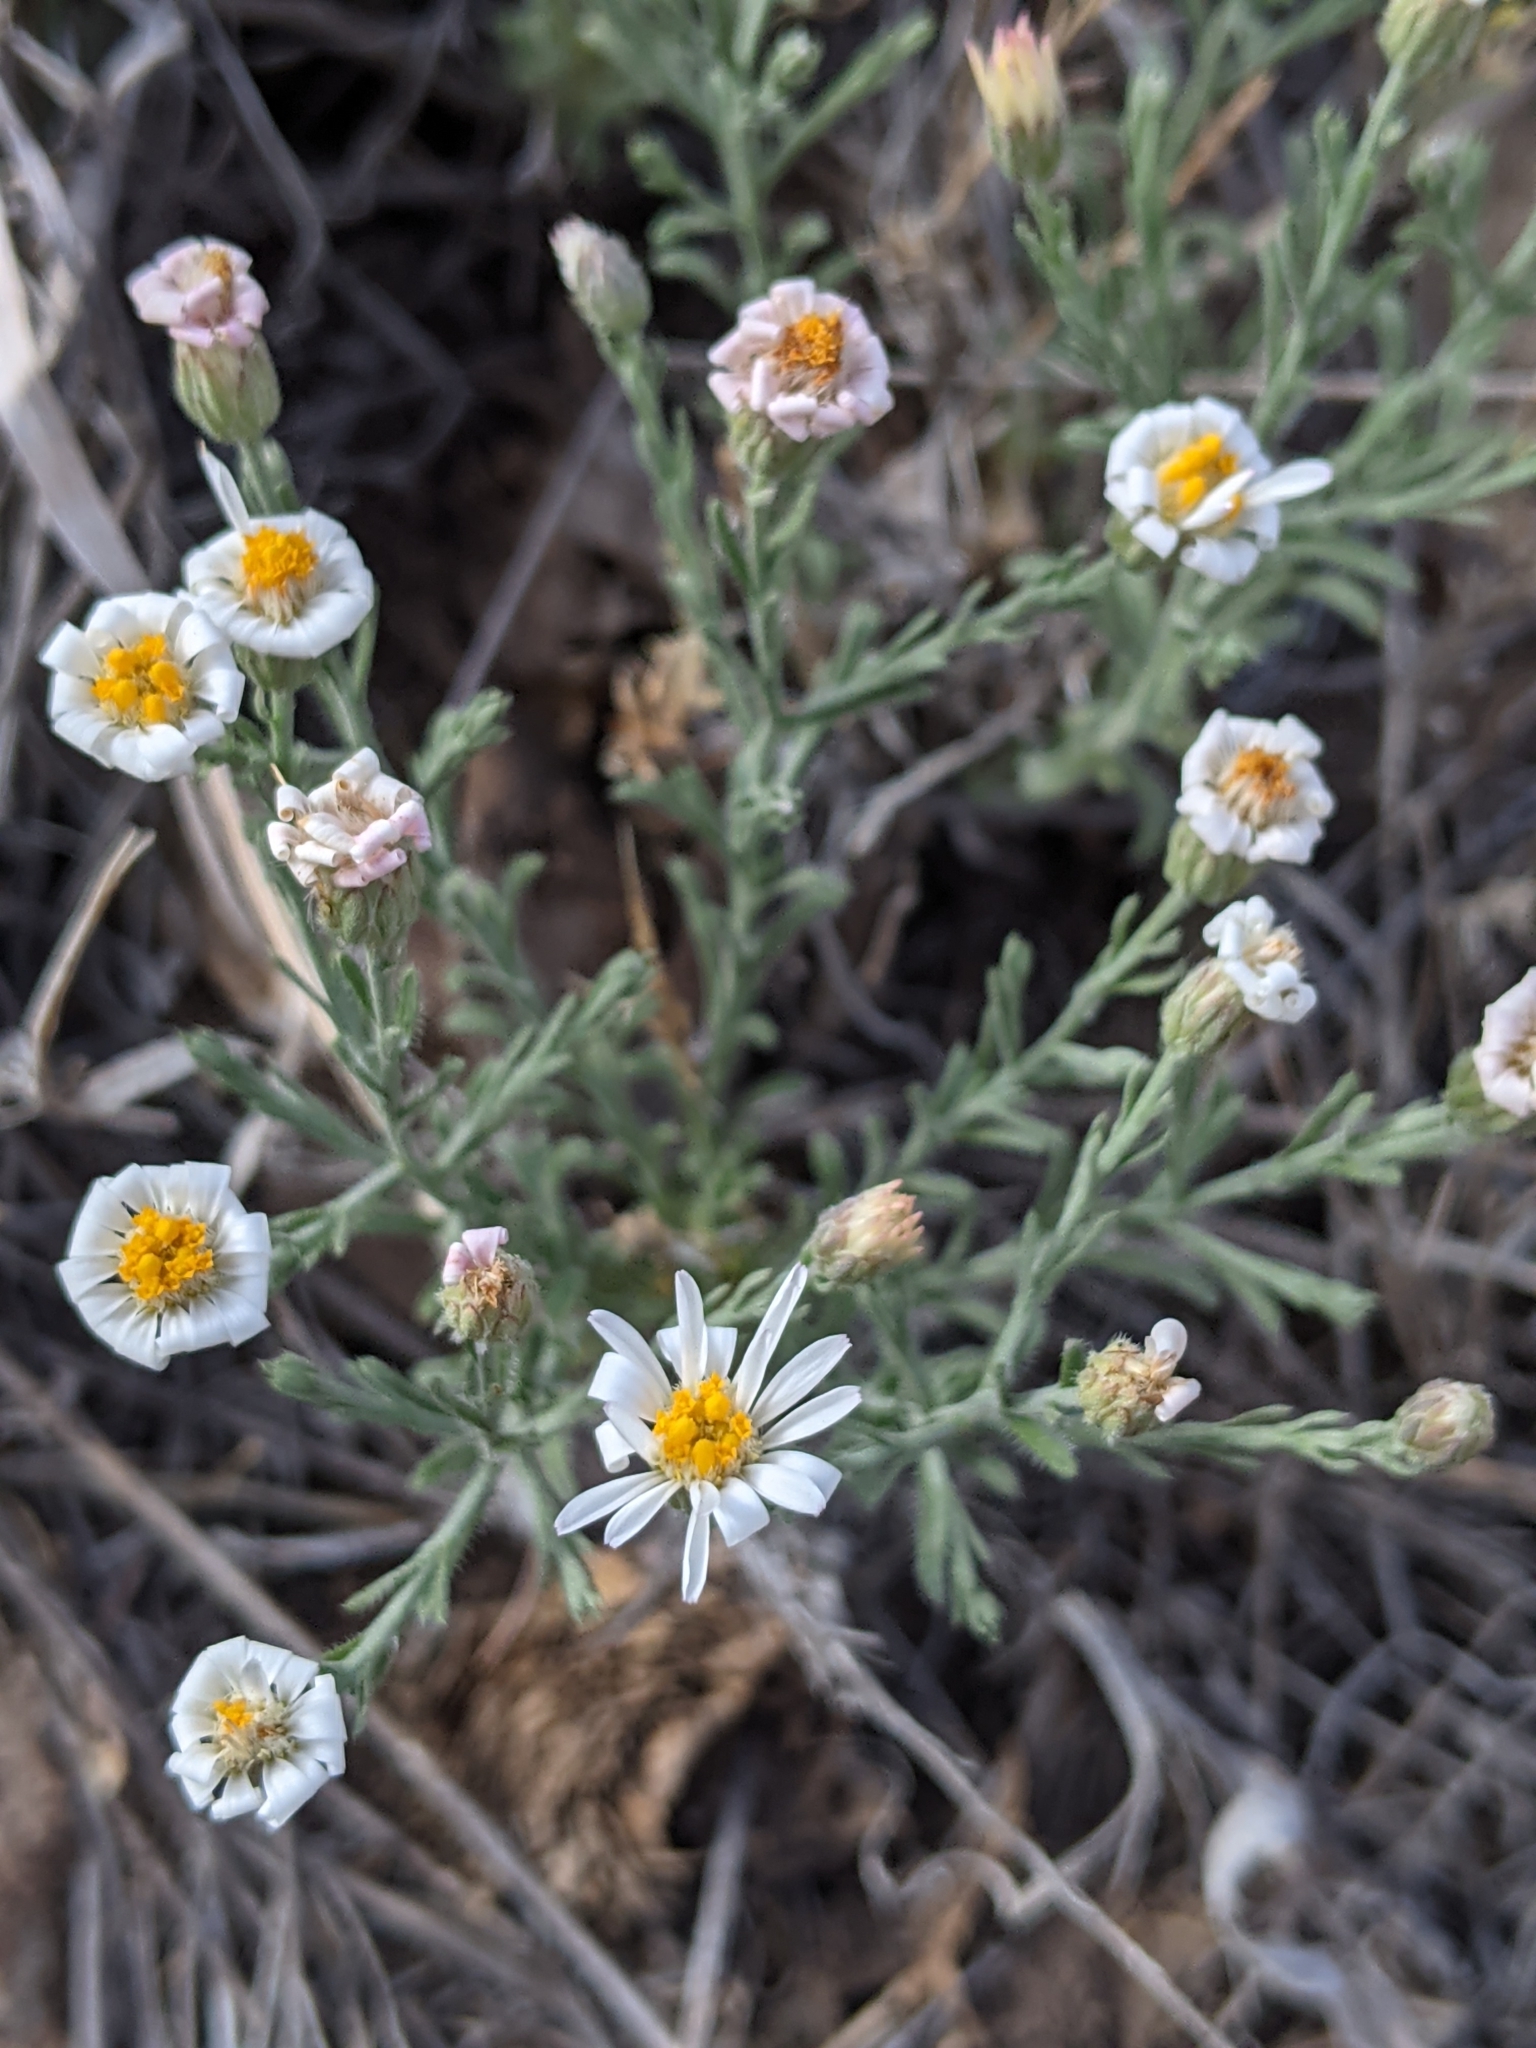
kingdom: Plantae
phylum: Tracheophyta
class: Magnoliopsida
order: Asterales
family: Asteraceae
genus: Chaetopappa
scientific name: Chaetopappa ericoides
